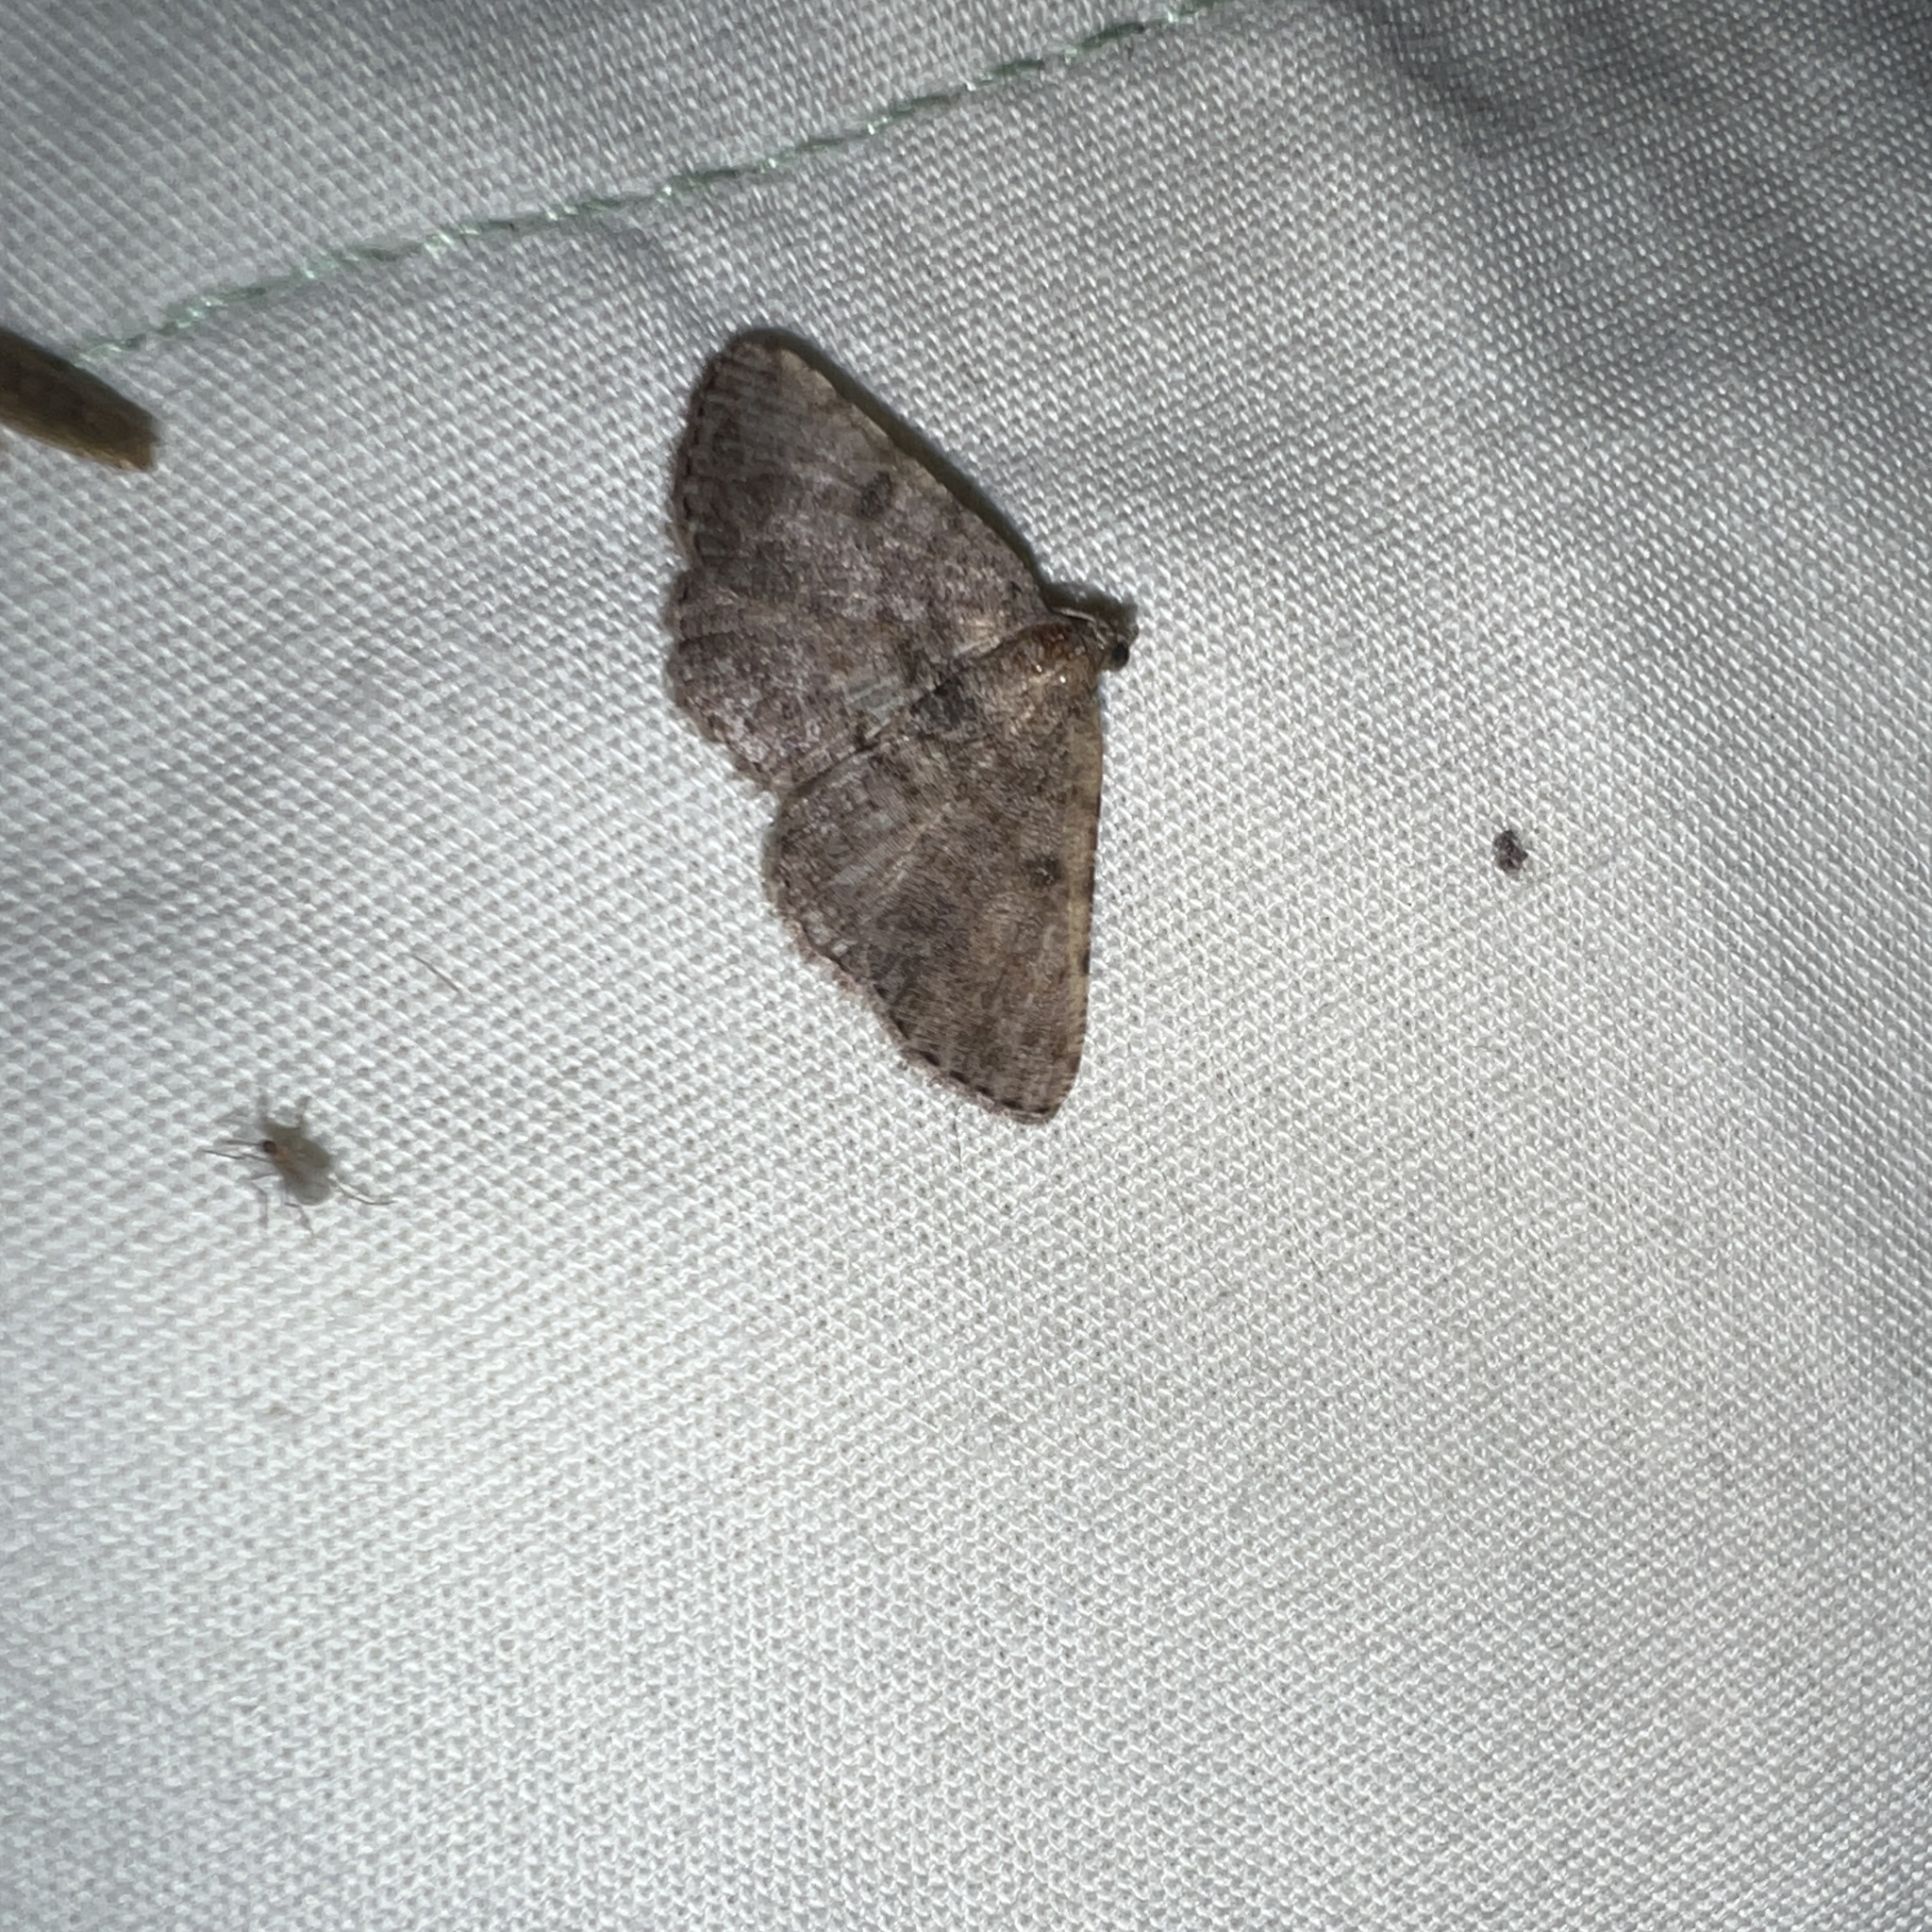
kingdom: Animalia
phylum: Arthropoda
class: Insecta
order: Lepidoptera
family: Geometridae
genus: Digrammia
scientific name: Digrammia gnophosaria
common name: Hollow-spotted angle
